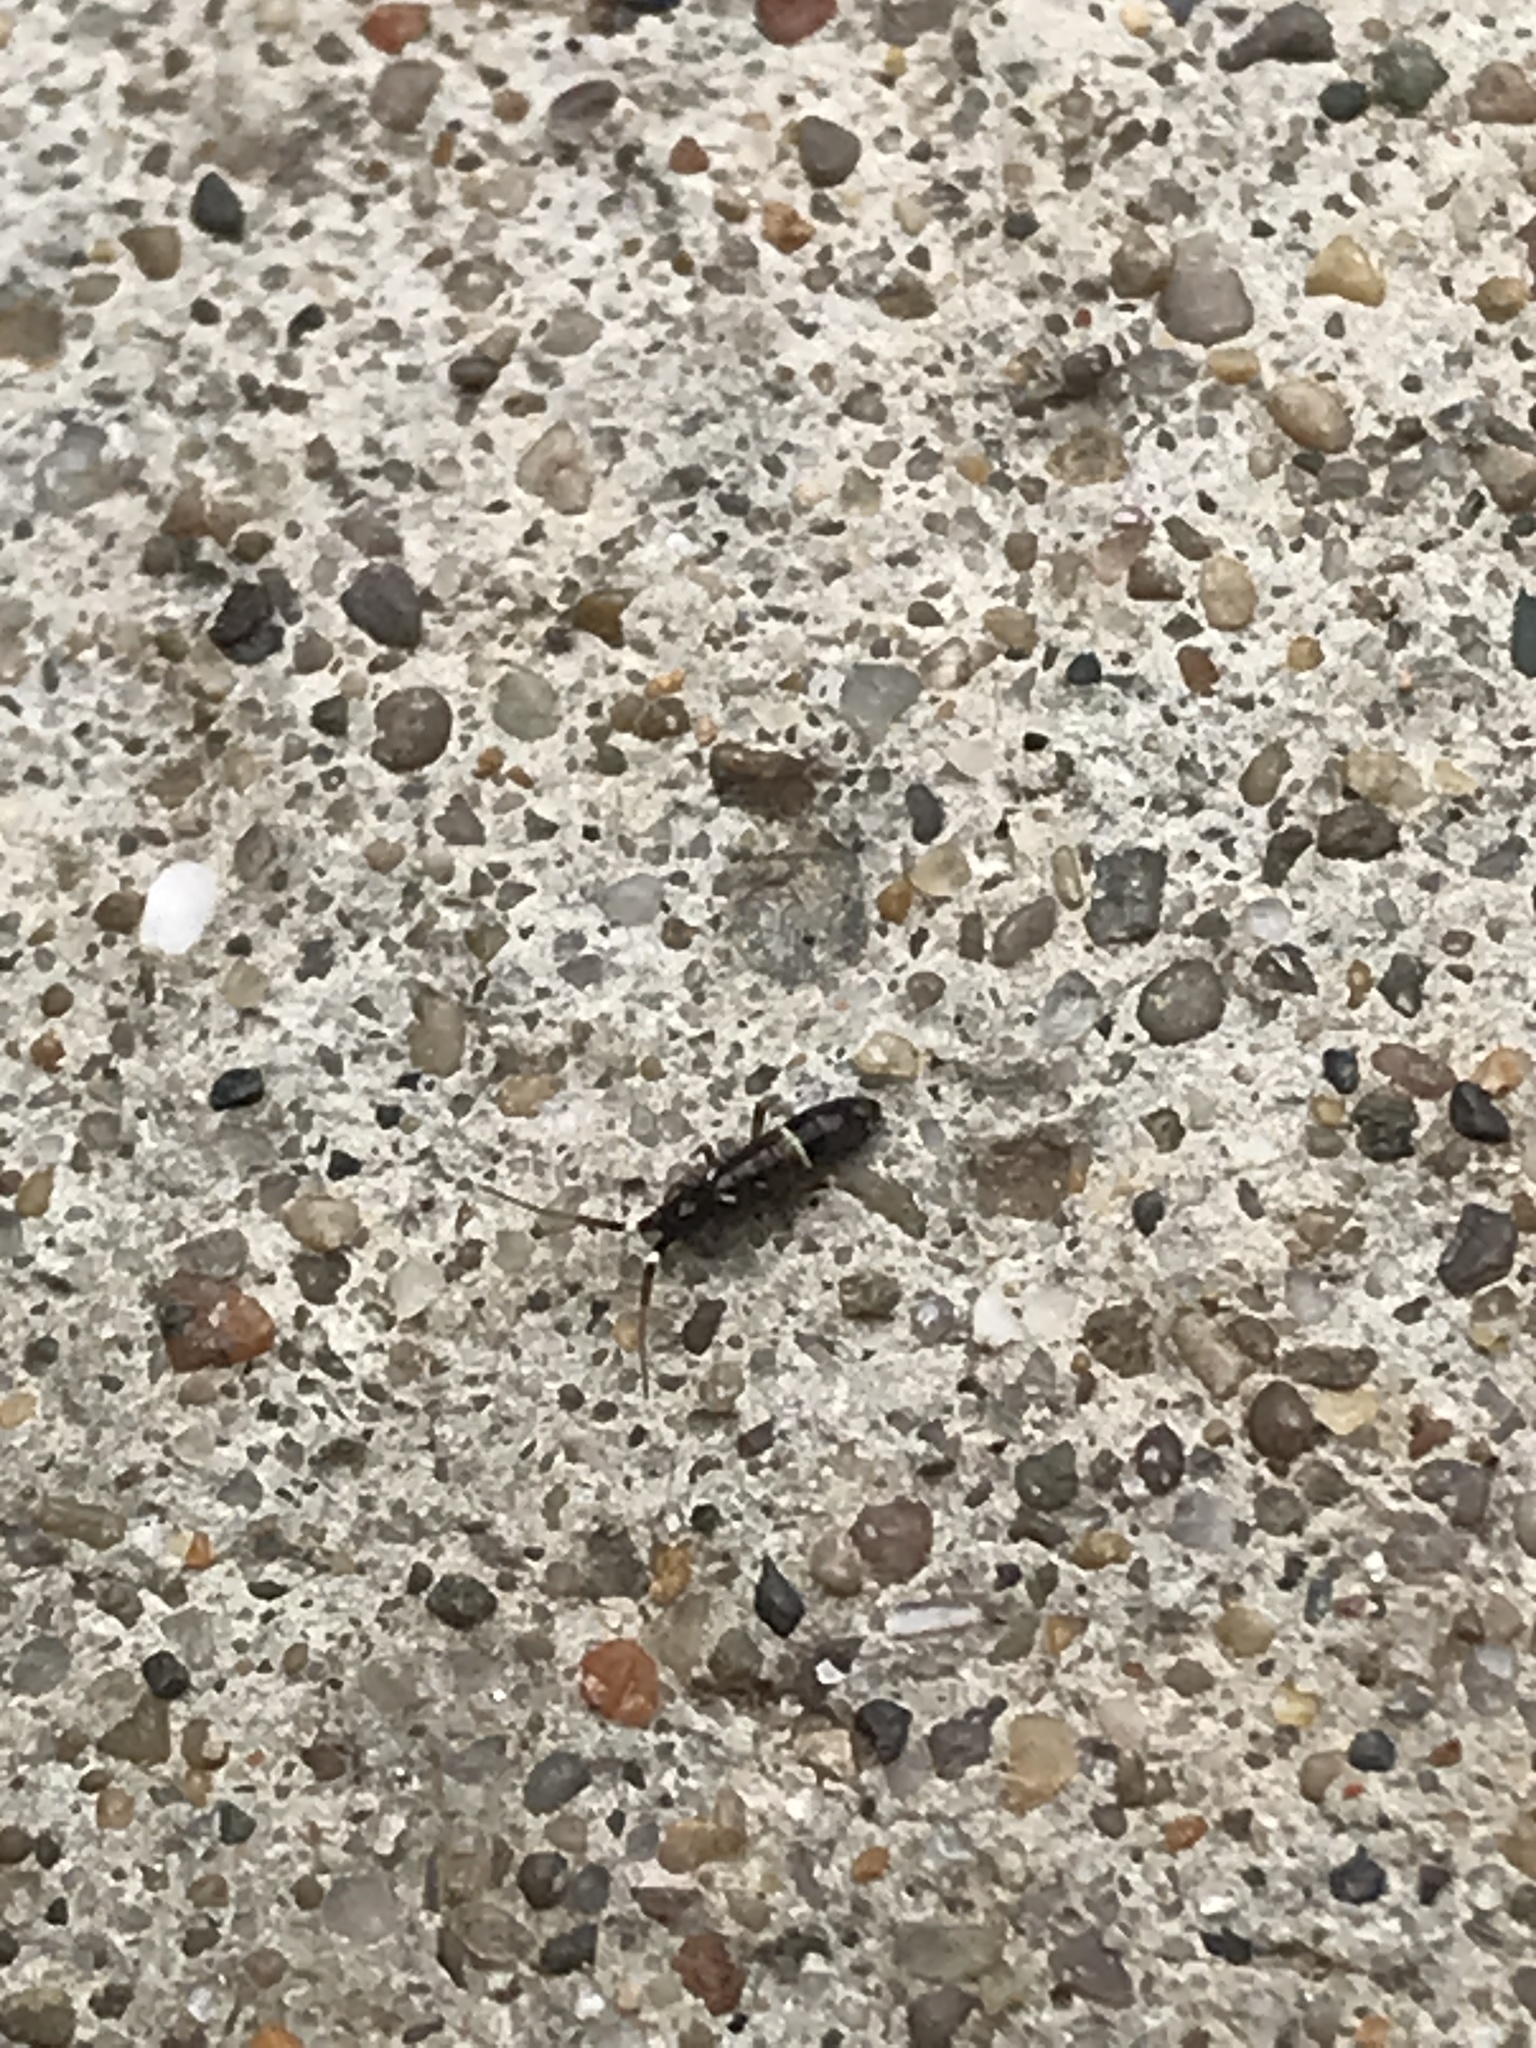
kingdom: Animalia
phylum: Arthropoda
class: Collembola
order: Entomobryomorpha
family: Orchesellidae
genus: Orchesella
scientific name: Orchesella cincta
